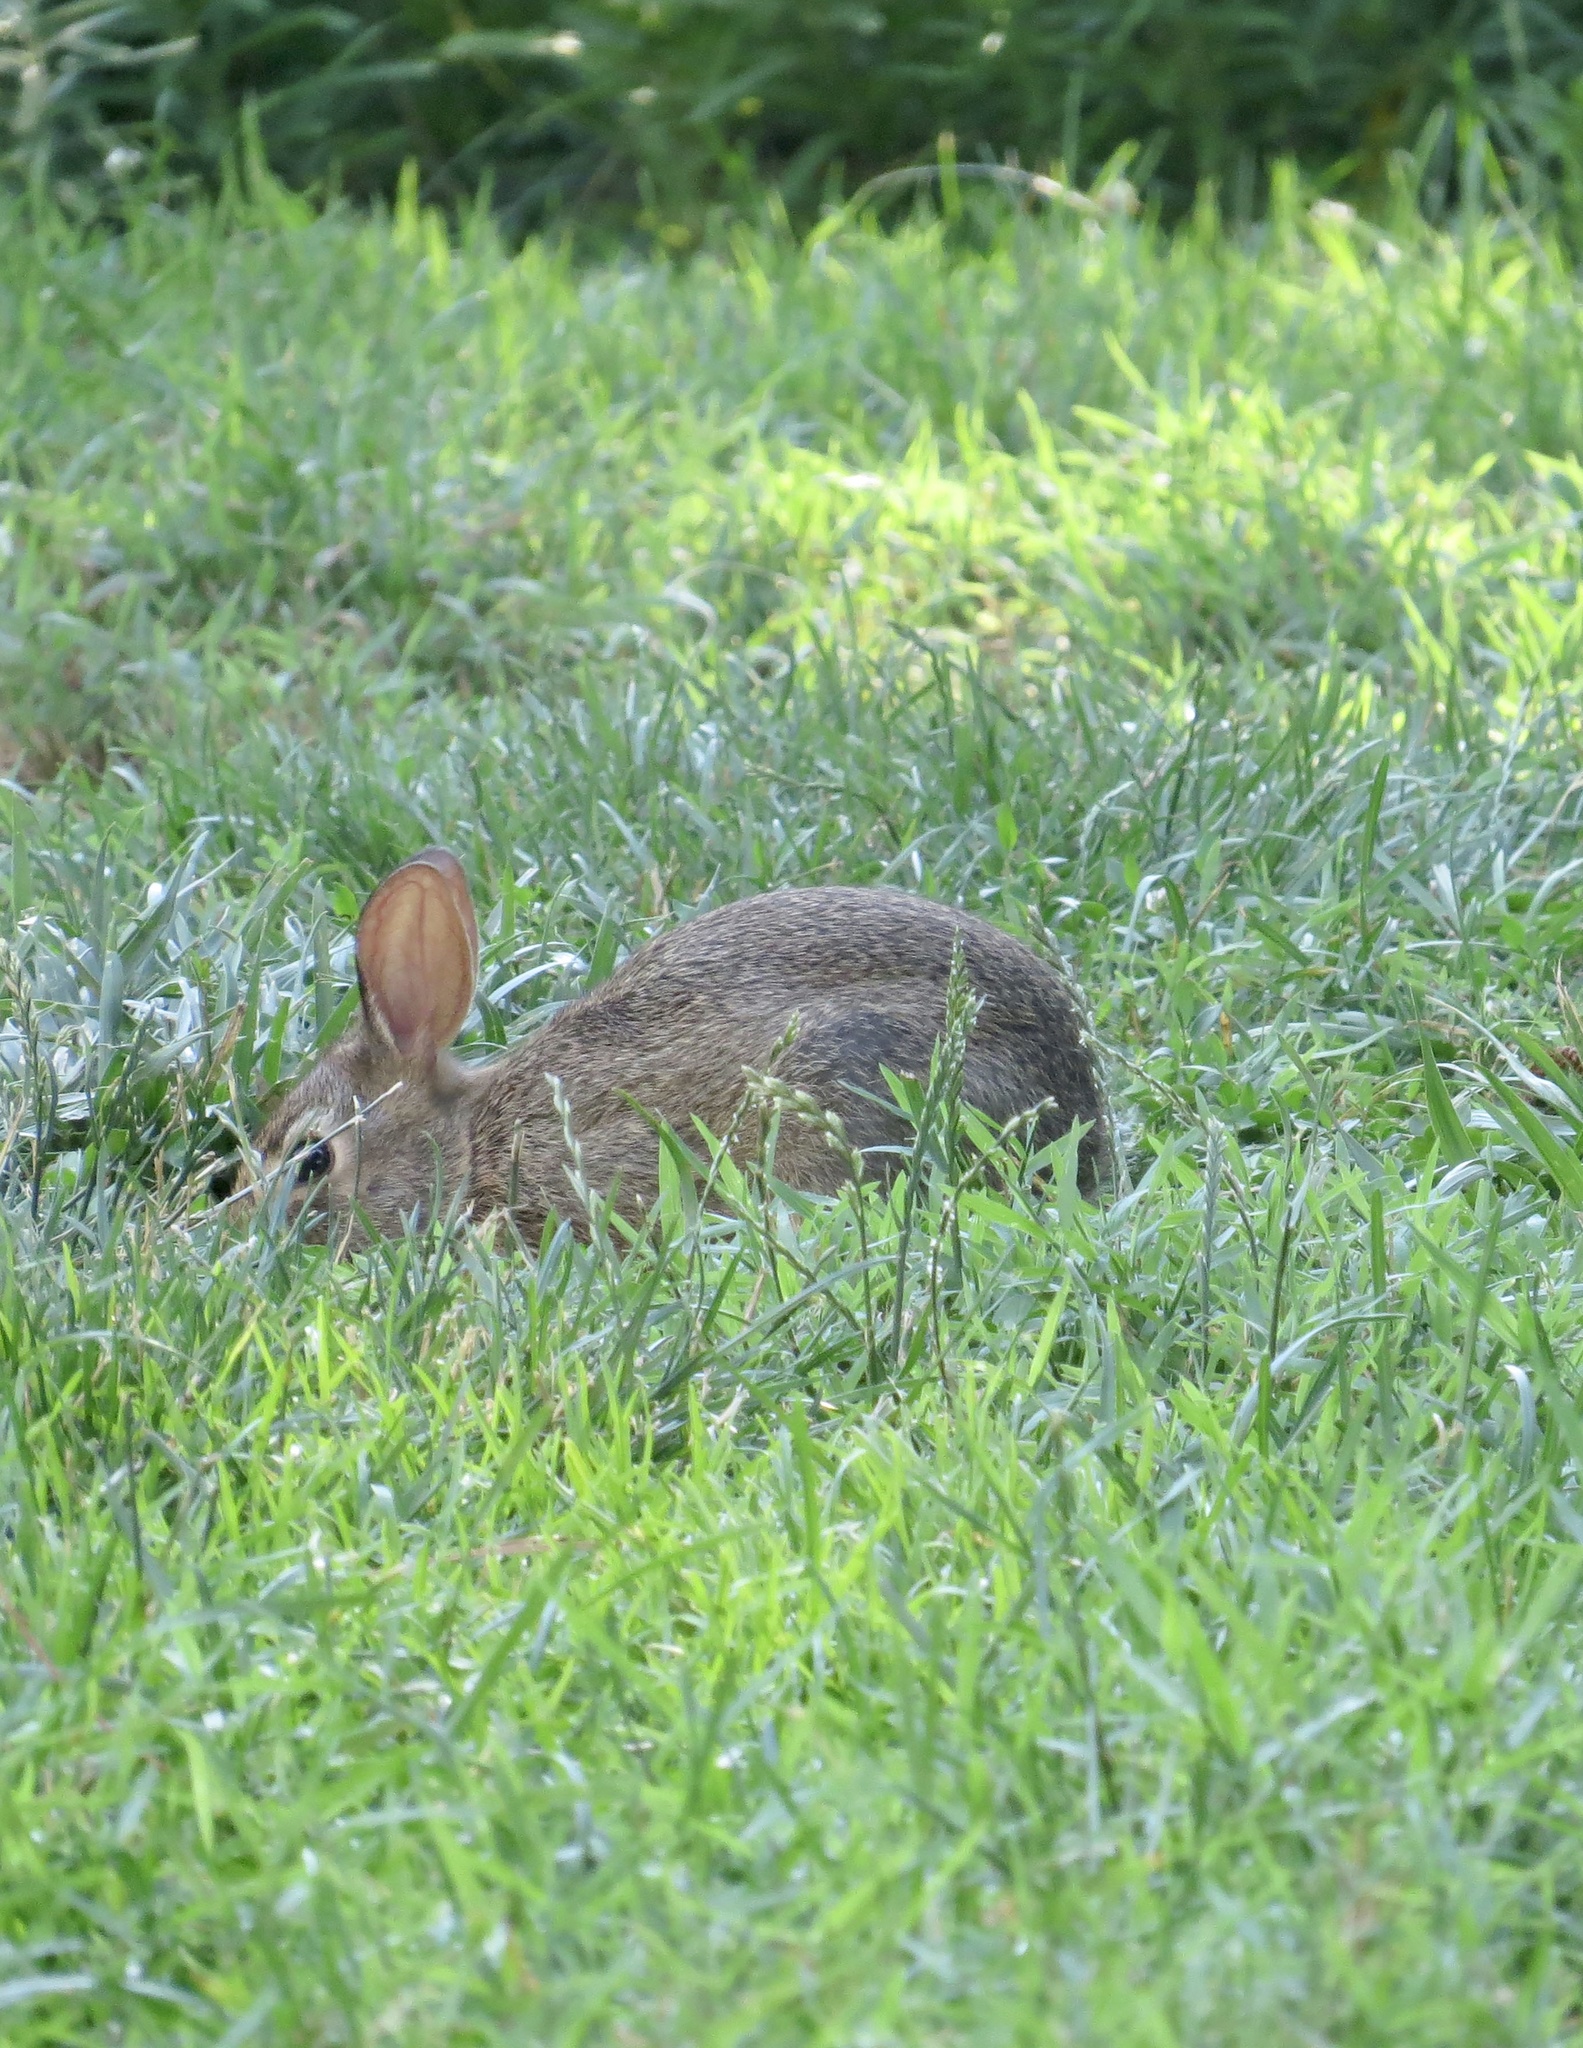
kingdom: Animalia
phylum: Chordata
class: Mammalia
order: Lagomorpha
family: Leporidae
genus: Sylvilagus
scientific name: Sylvilagus floridanus
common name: Eastern cottontail
